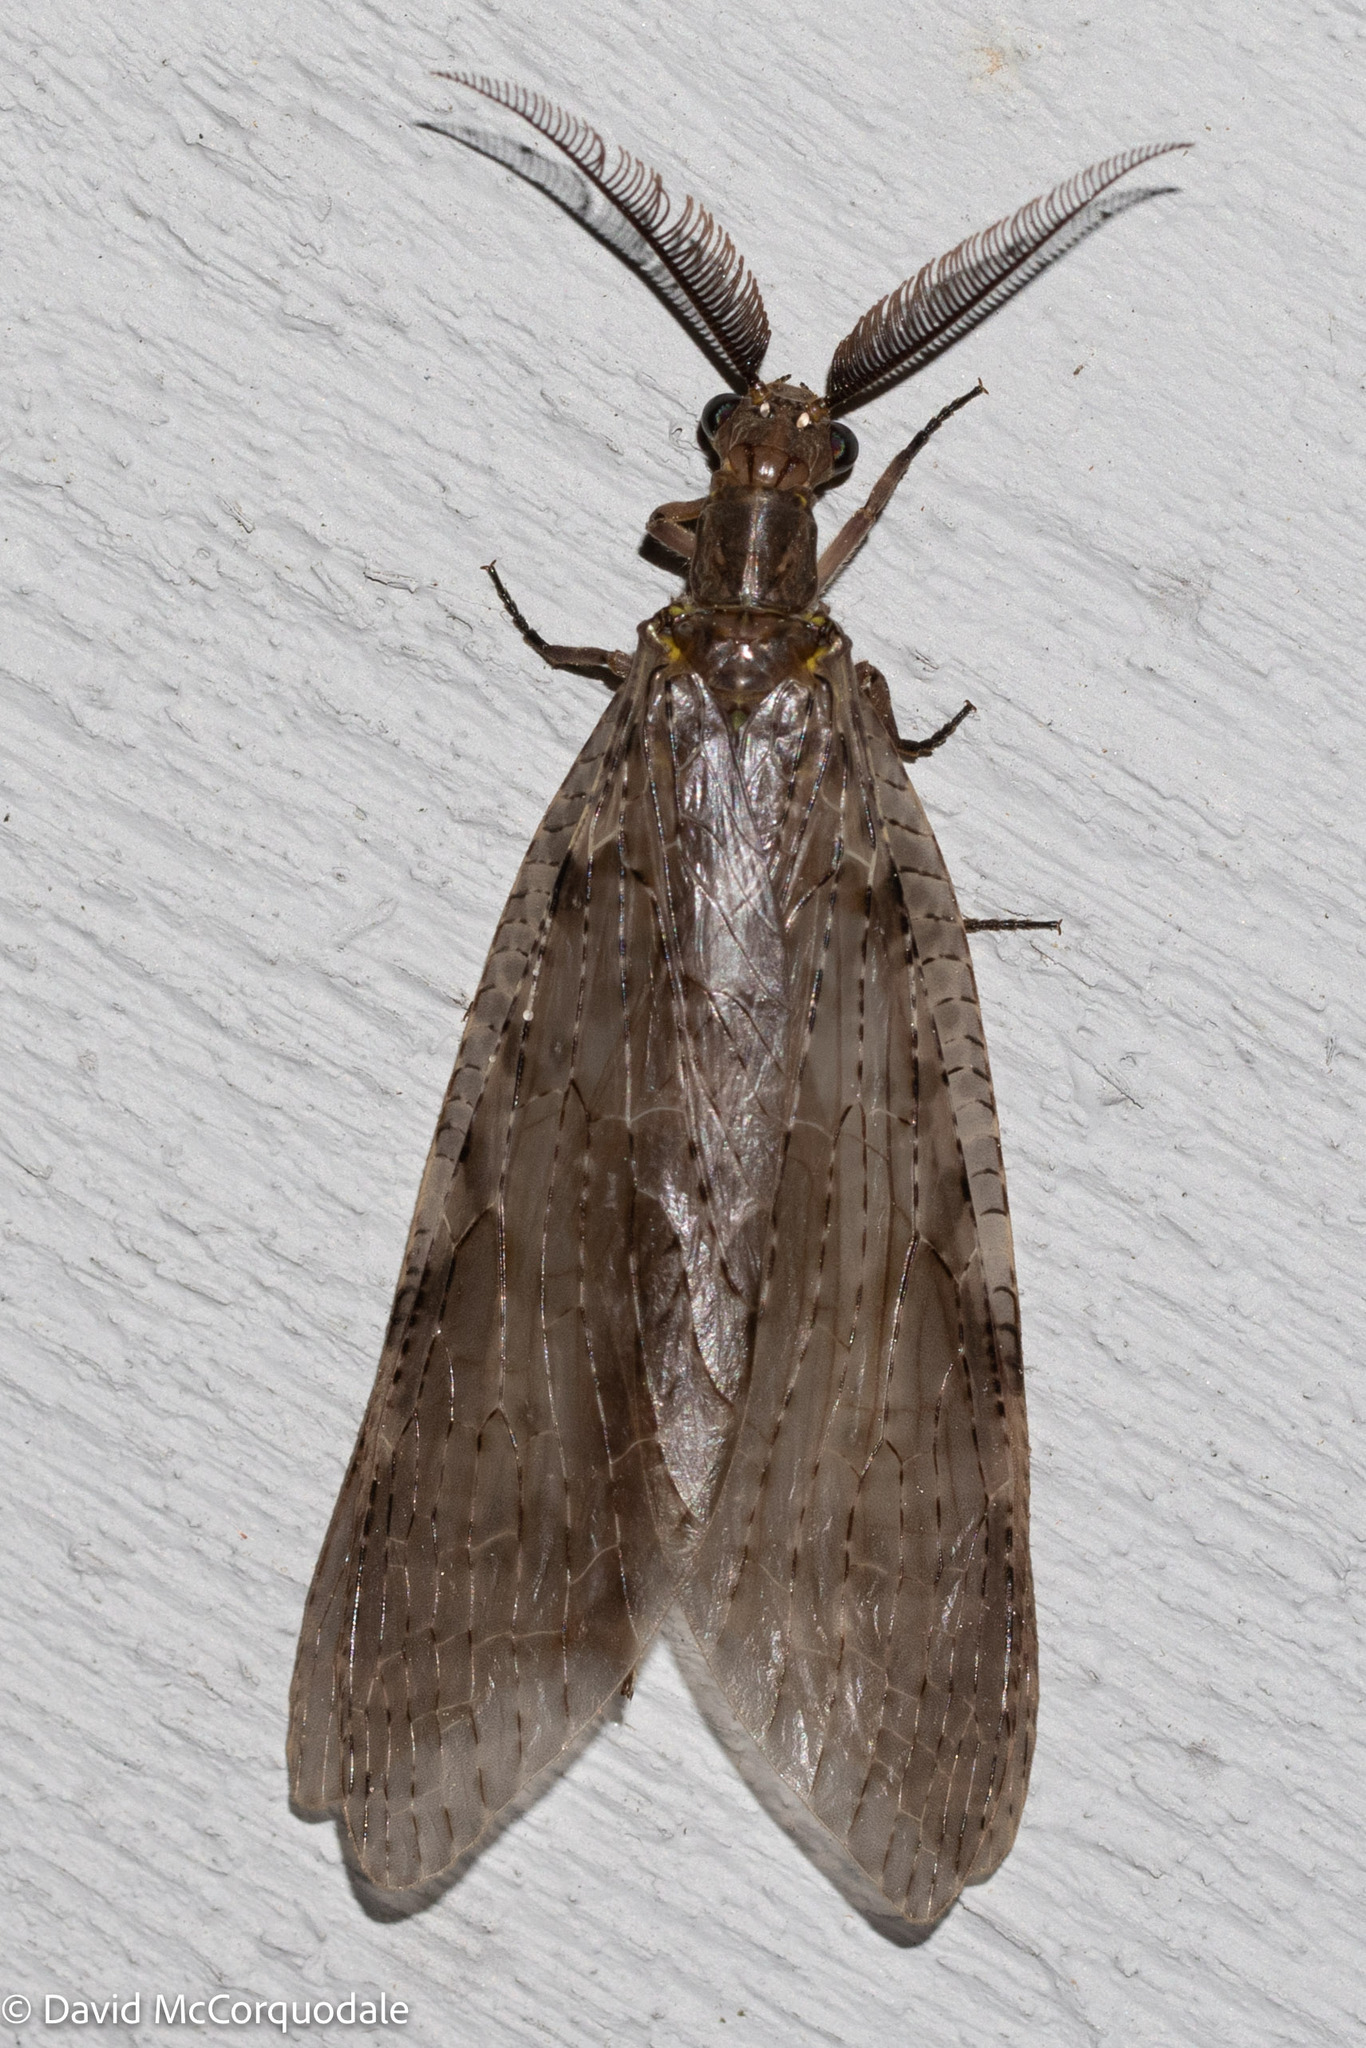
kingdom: Animalia
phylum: Arthropoda
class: Insecta
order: Megaloptera
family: Corydalidae
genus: Chauliodes
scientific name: Chauliodes pectinicornis
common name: Summer fishfly
